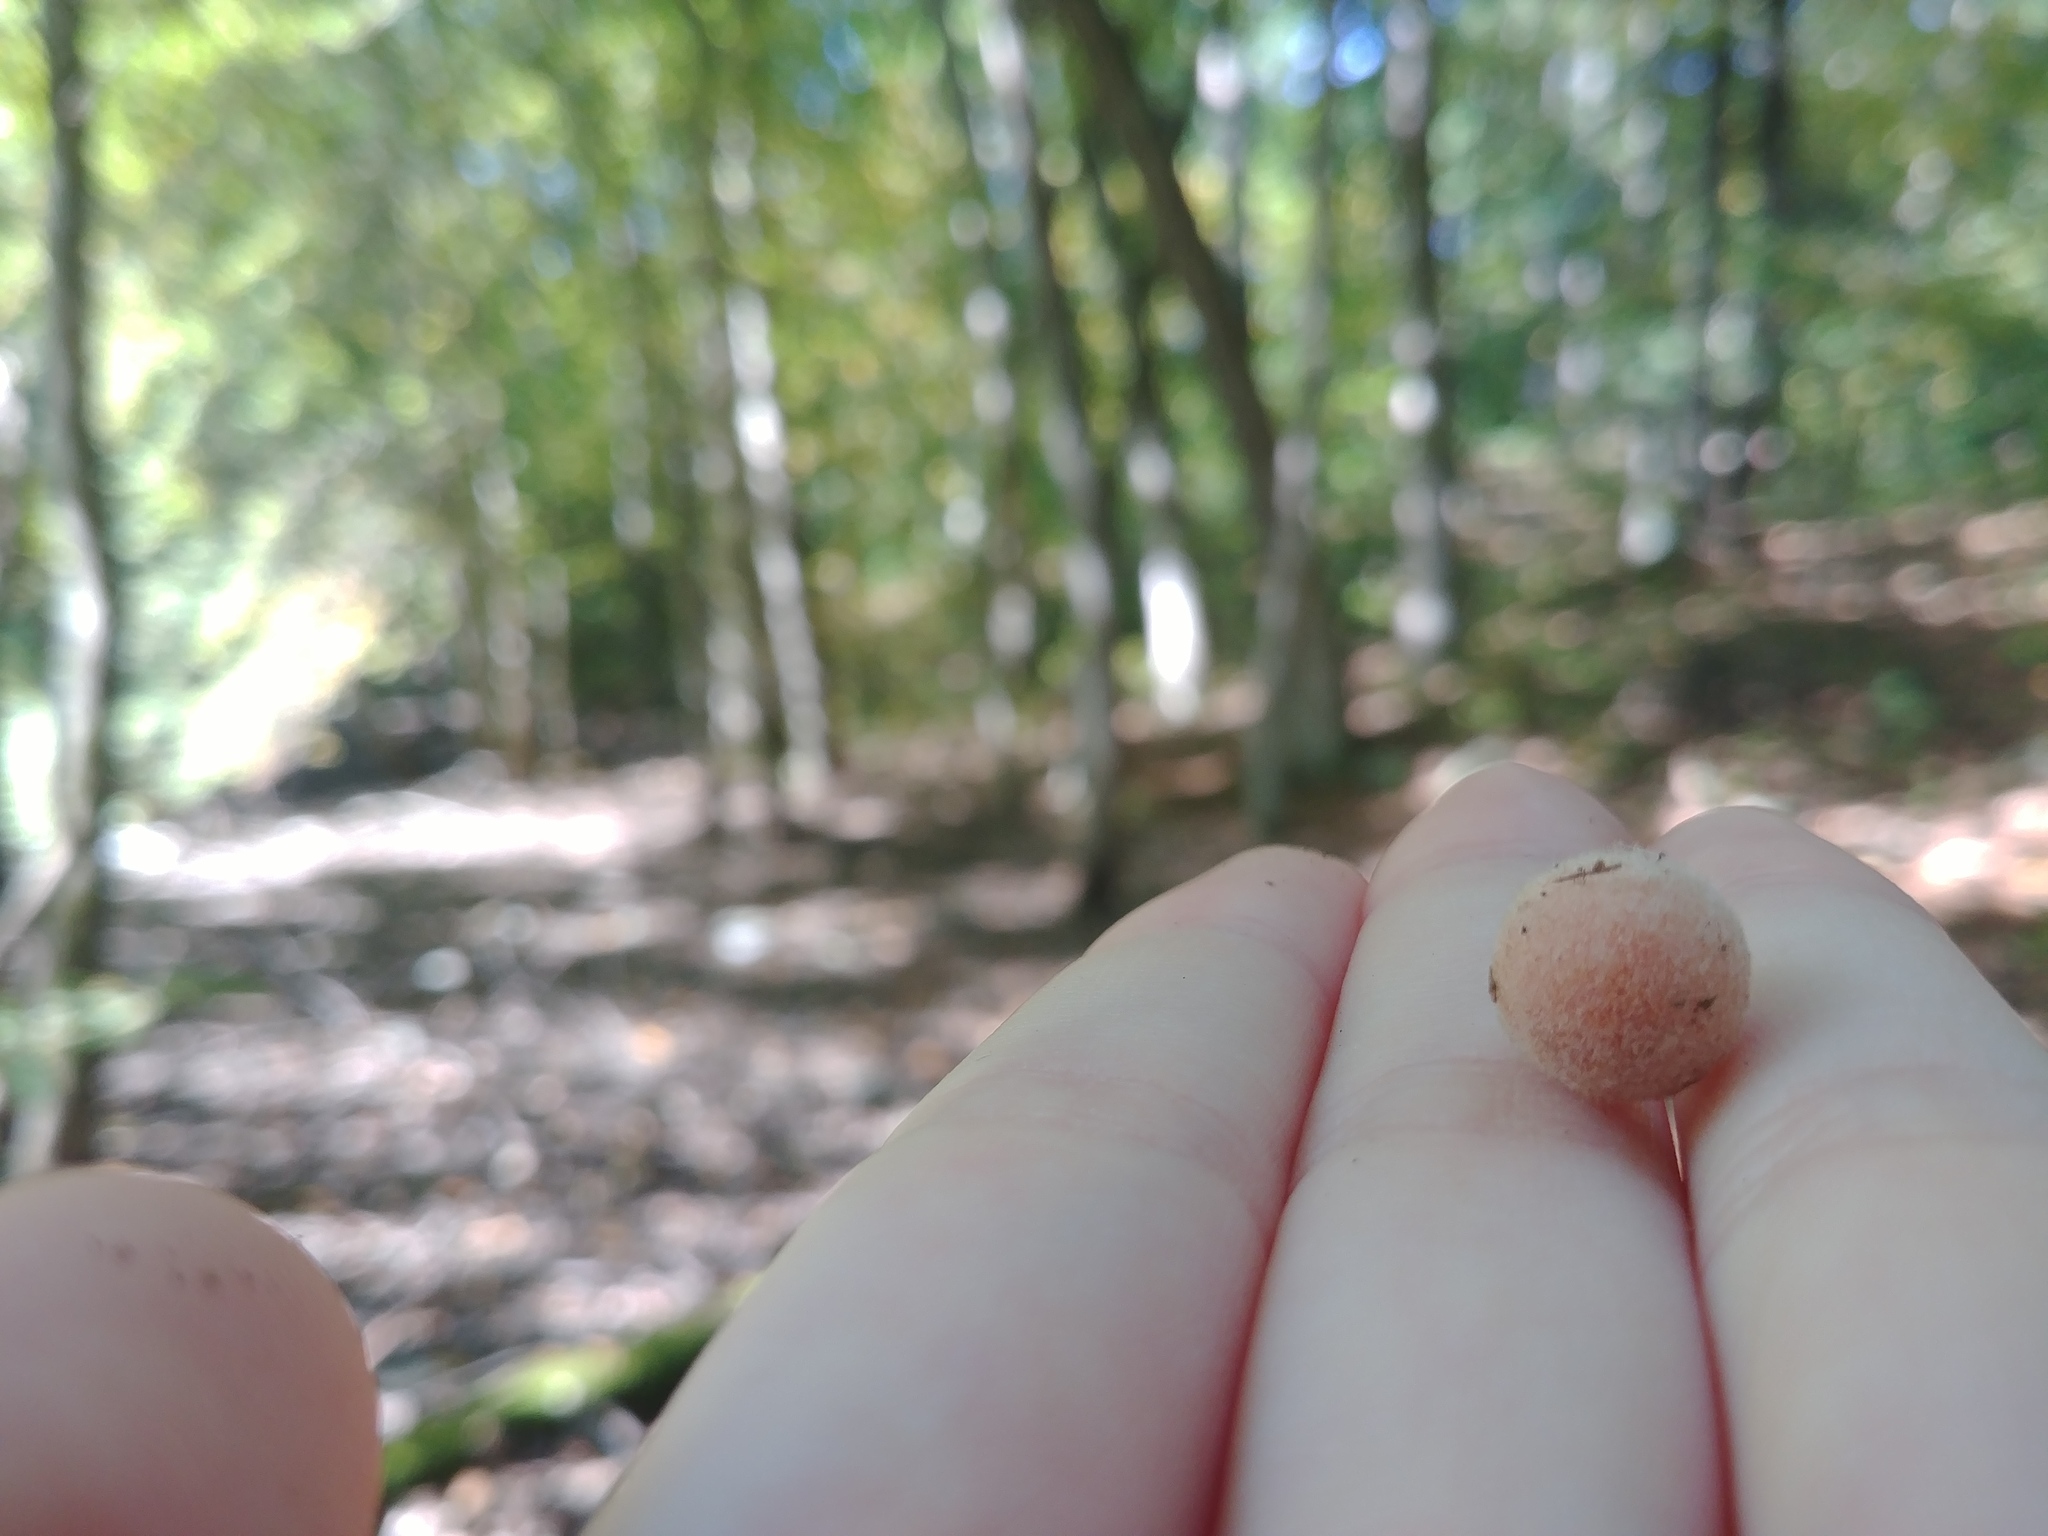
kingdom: Animalia
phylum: Arthropoda
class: Insecta
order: Hymenoptera
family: Cynipidae
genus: Philonix
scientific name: Philonix fulvicollis
